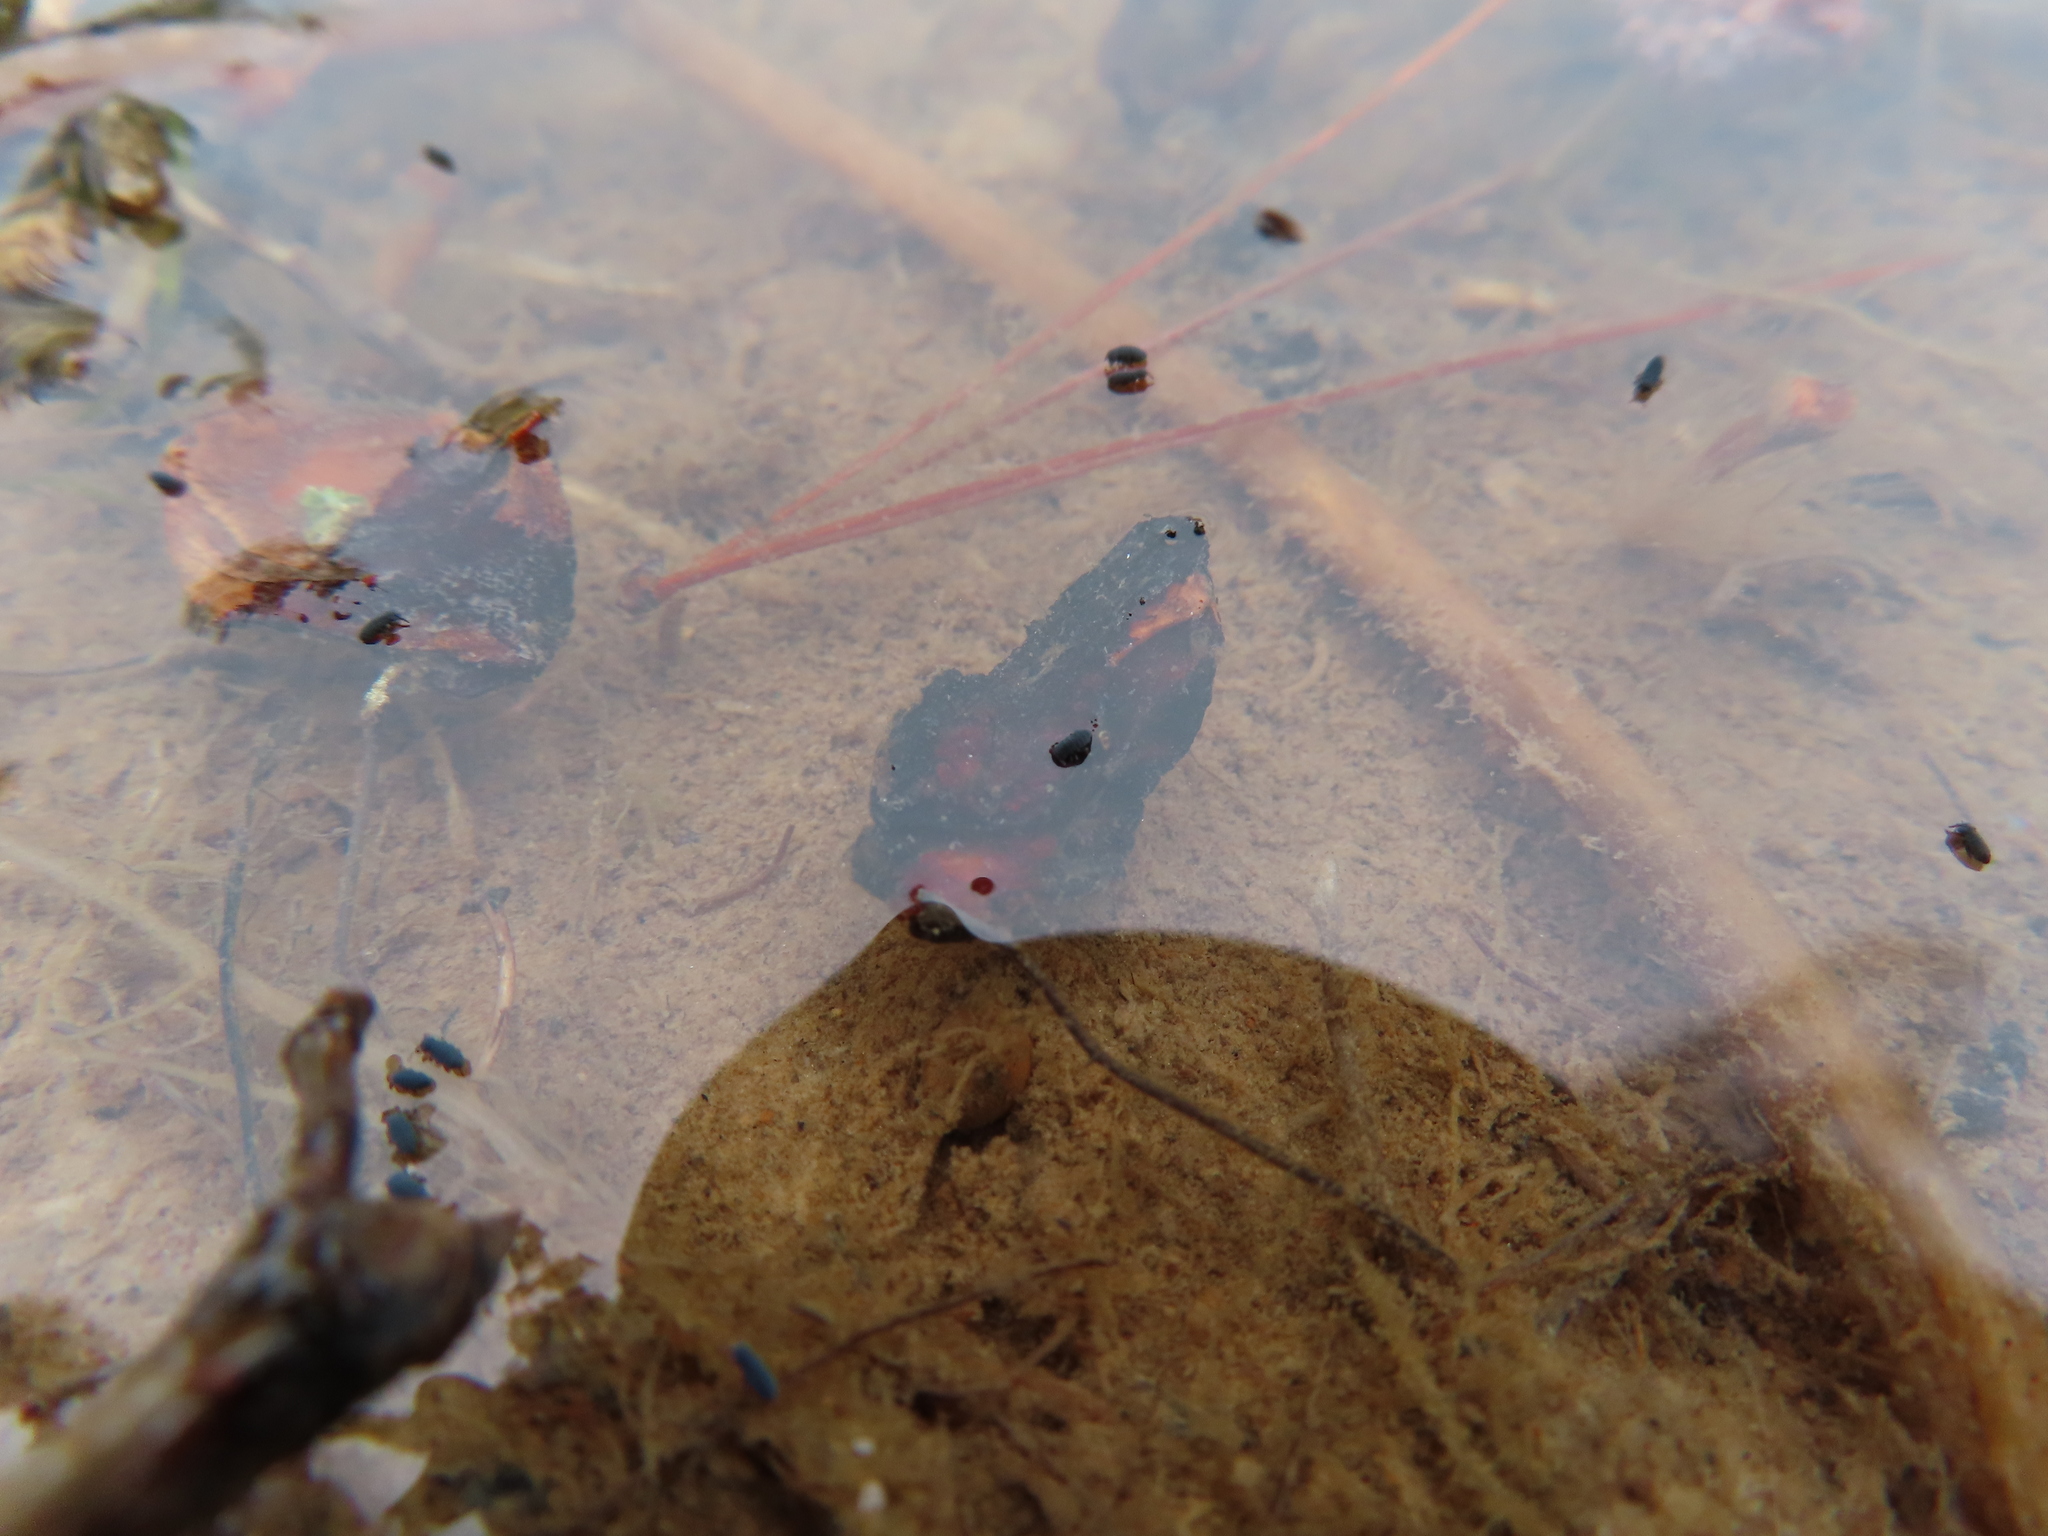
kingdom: Animalia
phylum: Arthropoda
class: Collembola
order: Poduromorpha
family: Poduridae
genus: Podura
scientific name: Podura aquatica
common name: Water springtail
